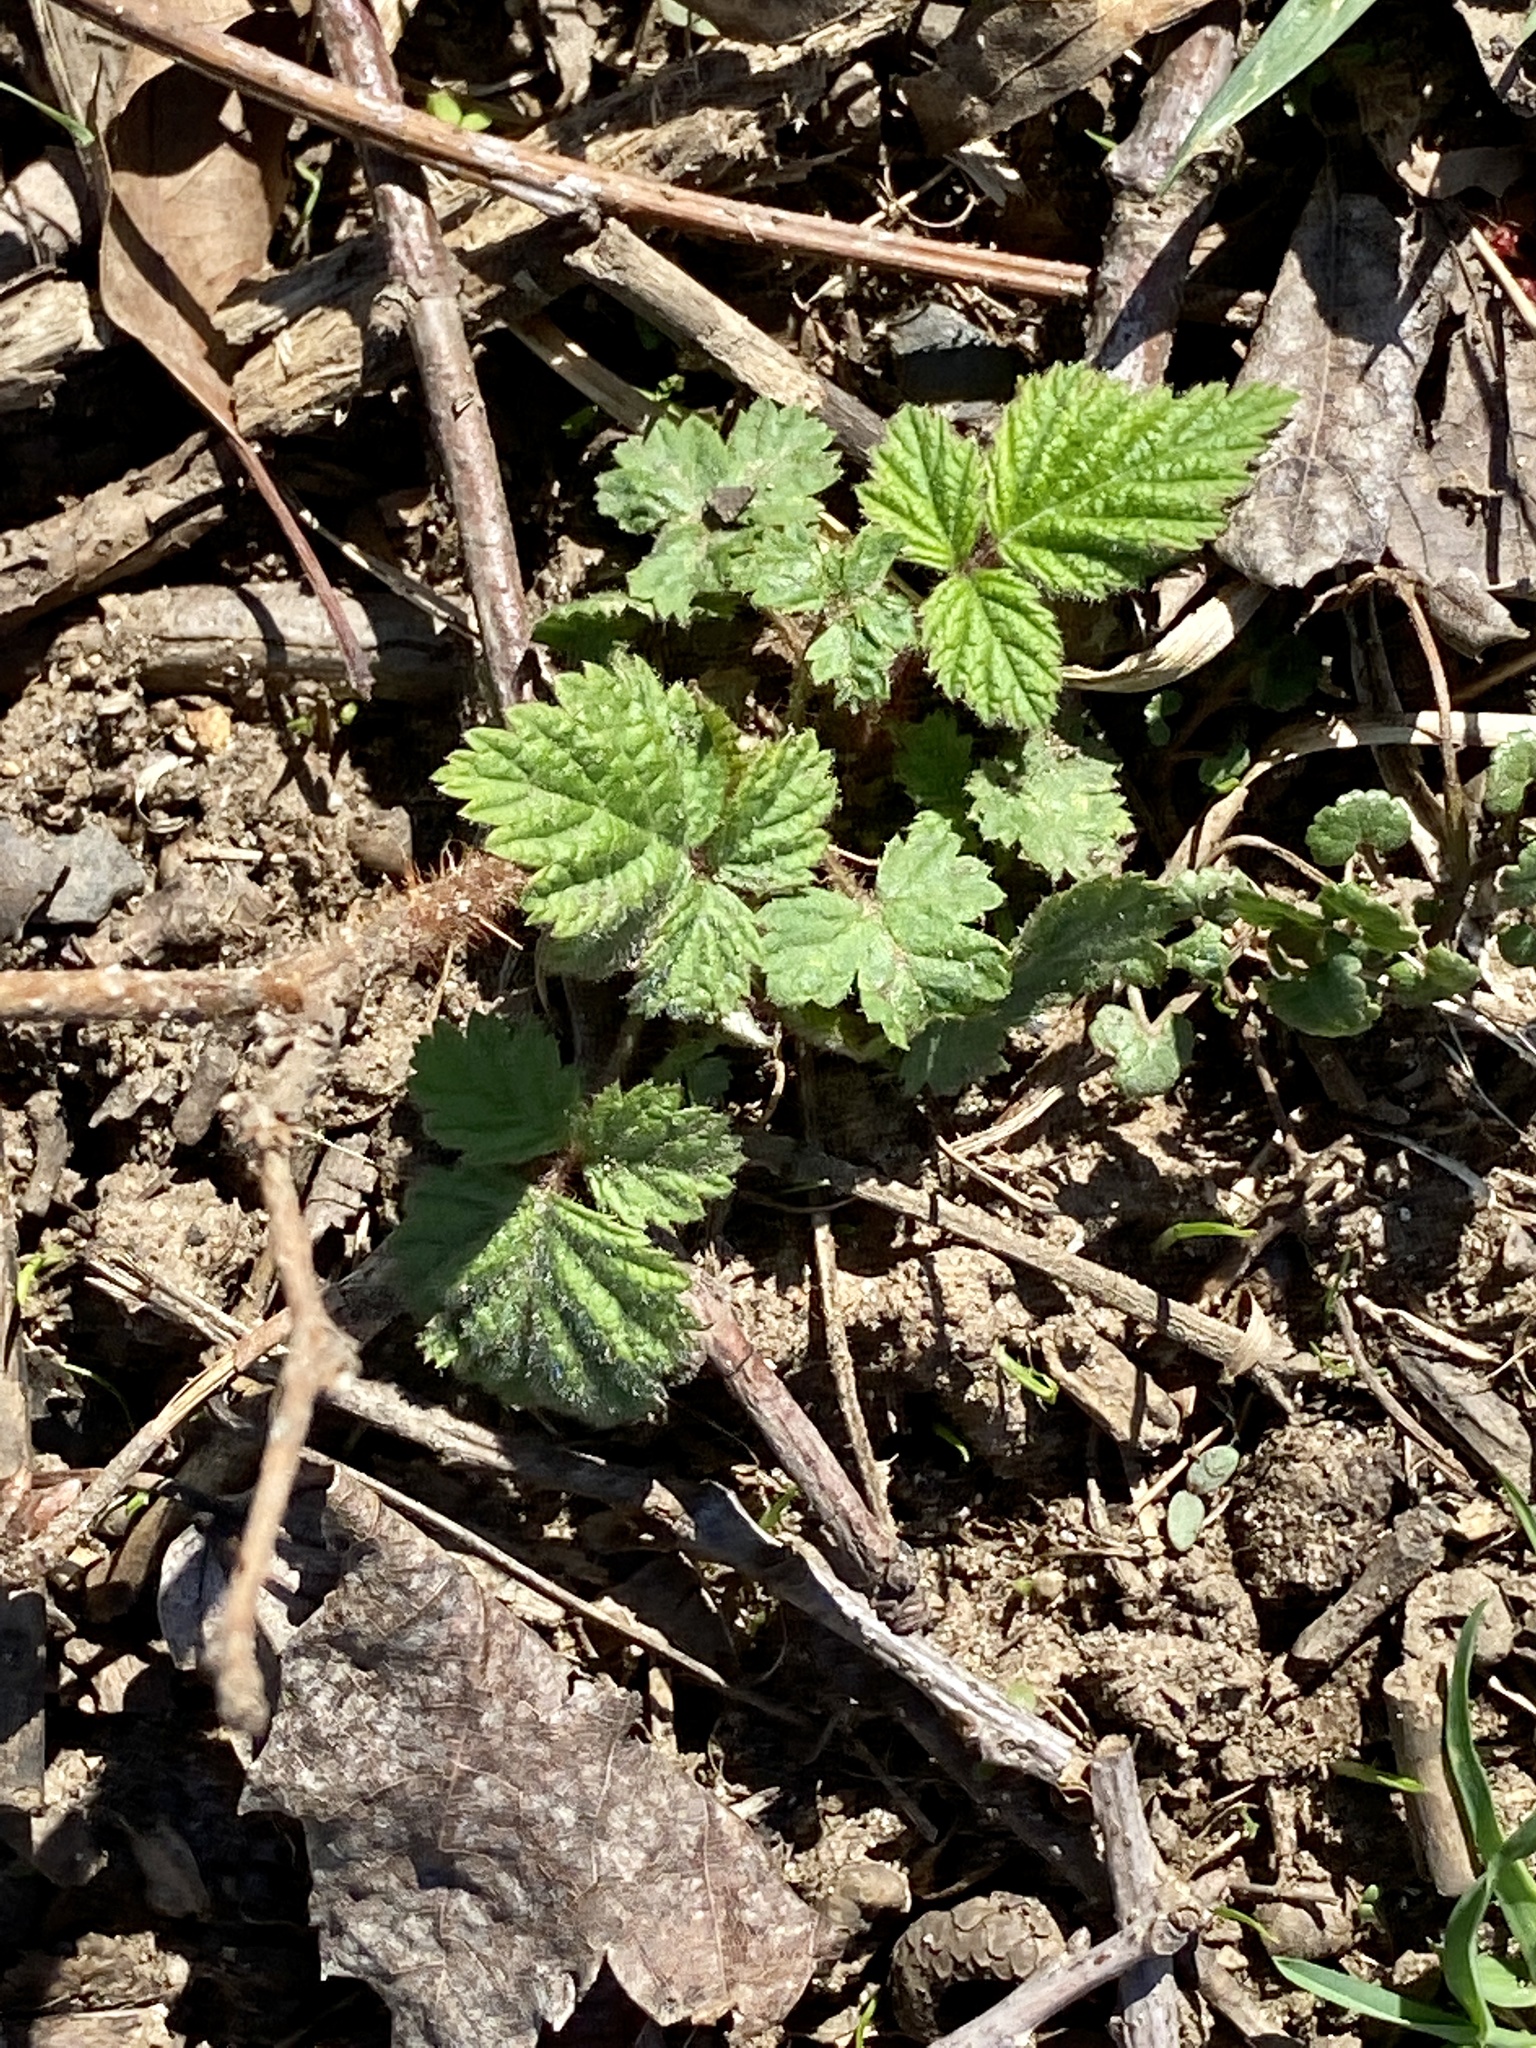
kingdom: Plantae
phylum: Tracheophyta
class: Magnoliopsida
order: Rosales
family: Rosaceae
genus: Rubus
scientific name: Rubus phoenicolasius
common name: Japanese wineberry
